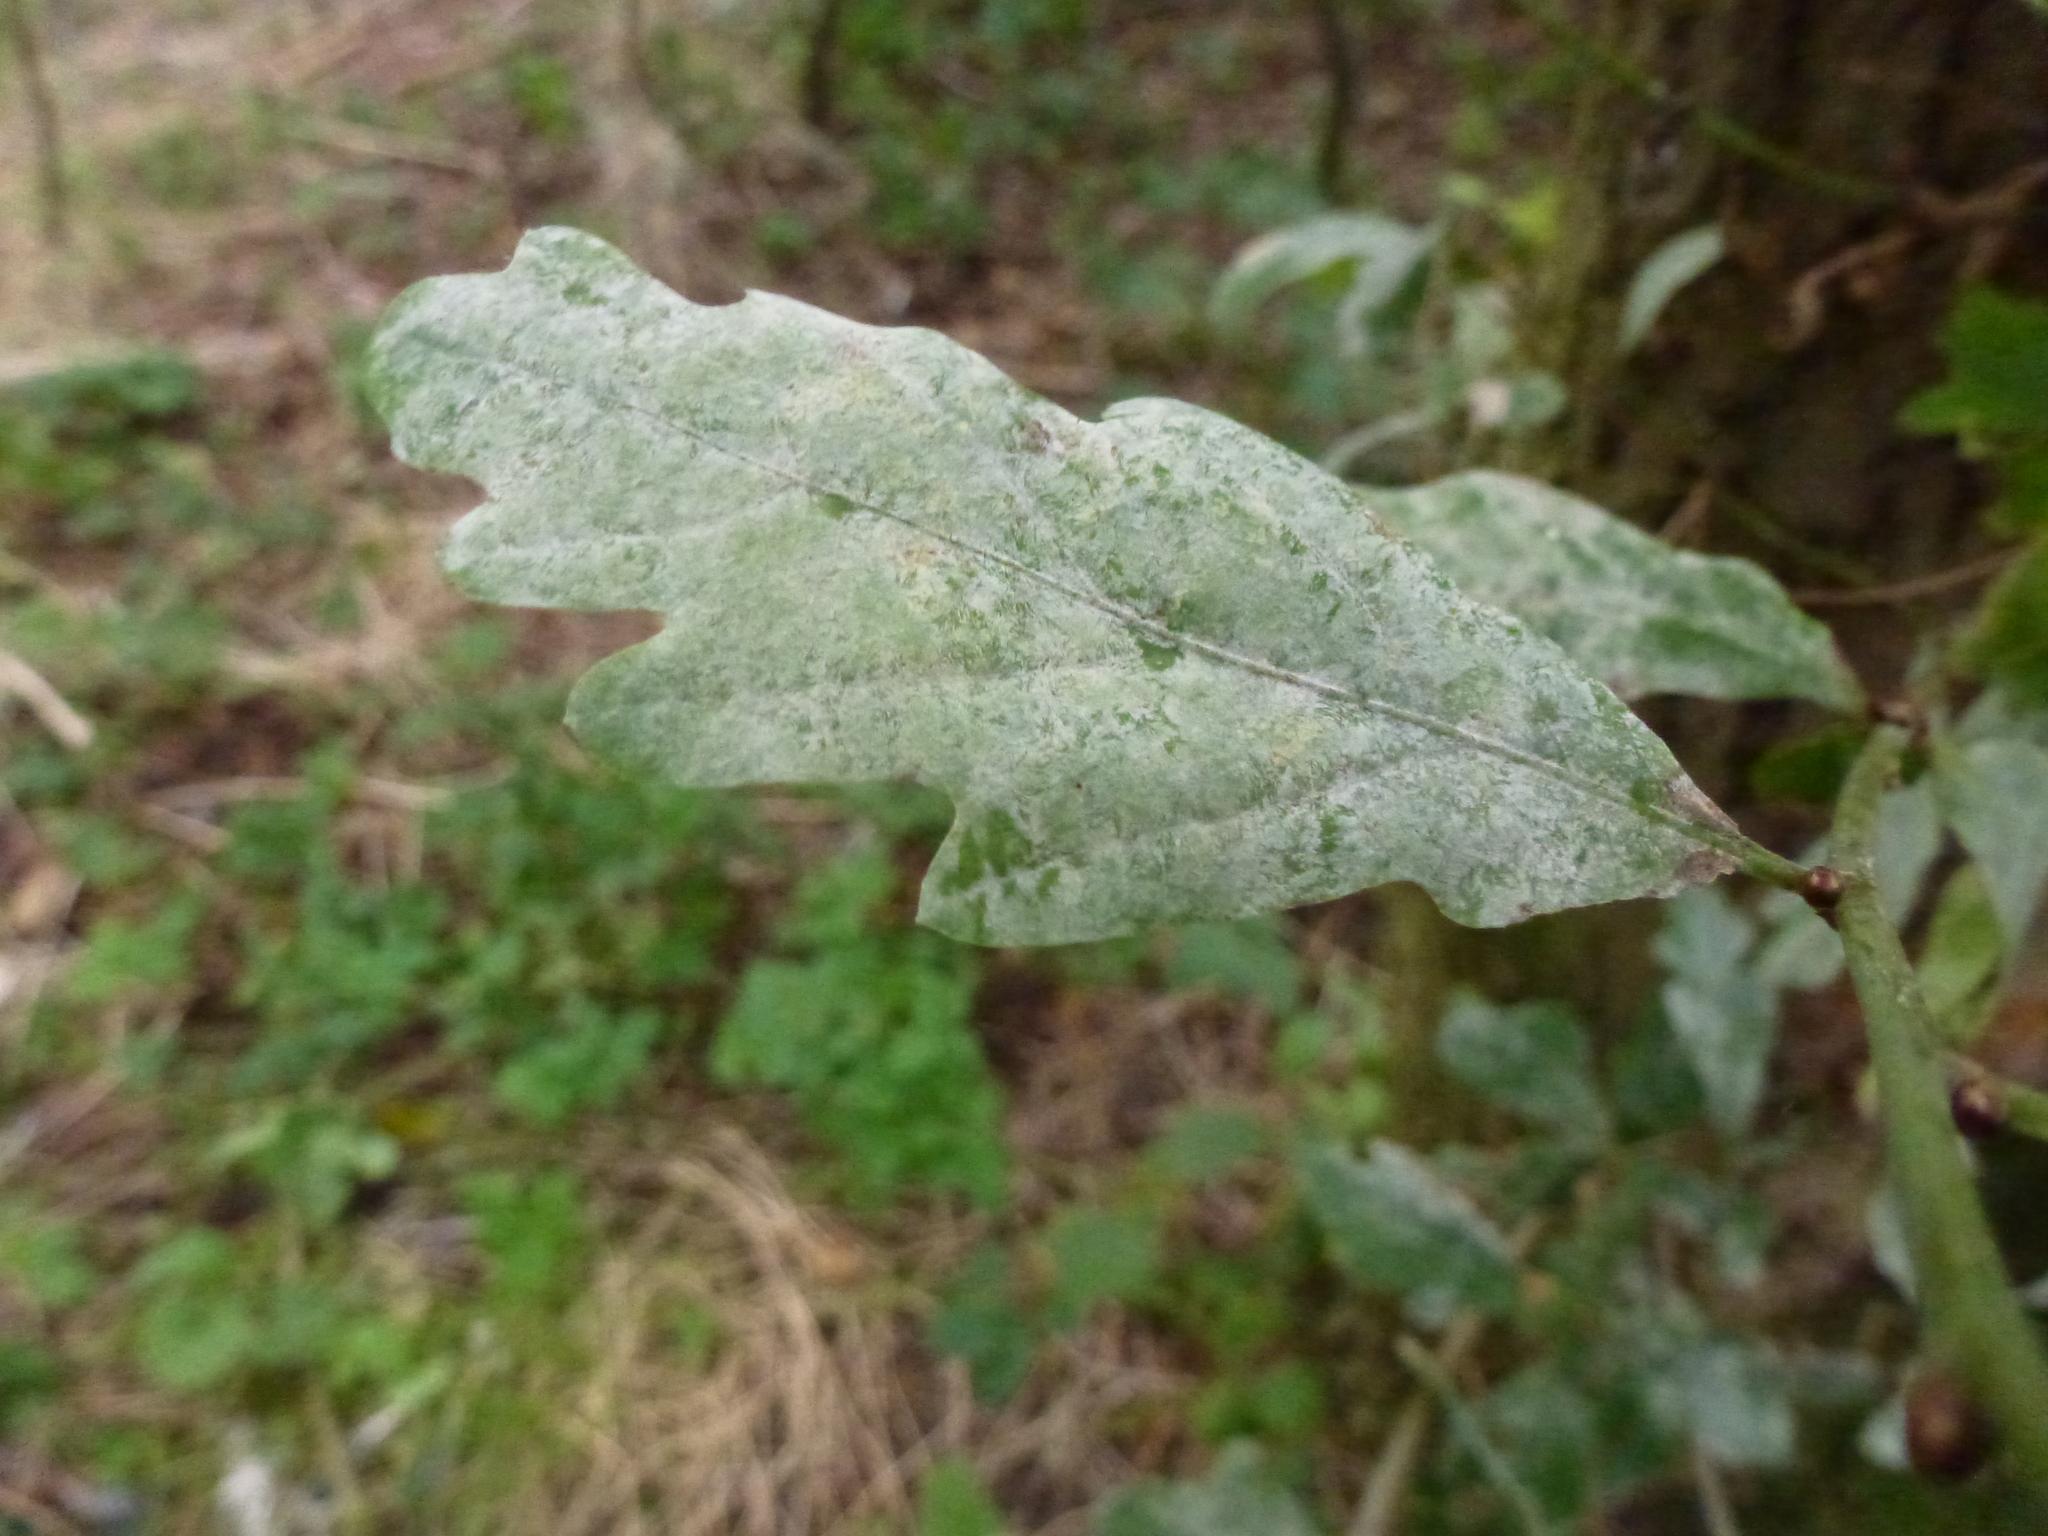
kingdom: Fungi
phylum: Ascomycota
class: Leotiomycetes
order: Helotiales
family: Erysiphaceae
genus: Erysiphe
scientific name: Erysiphe alphitoides
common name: Oak mildew
